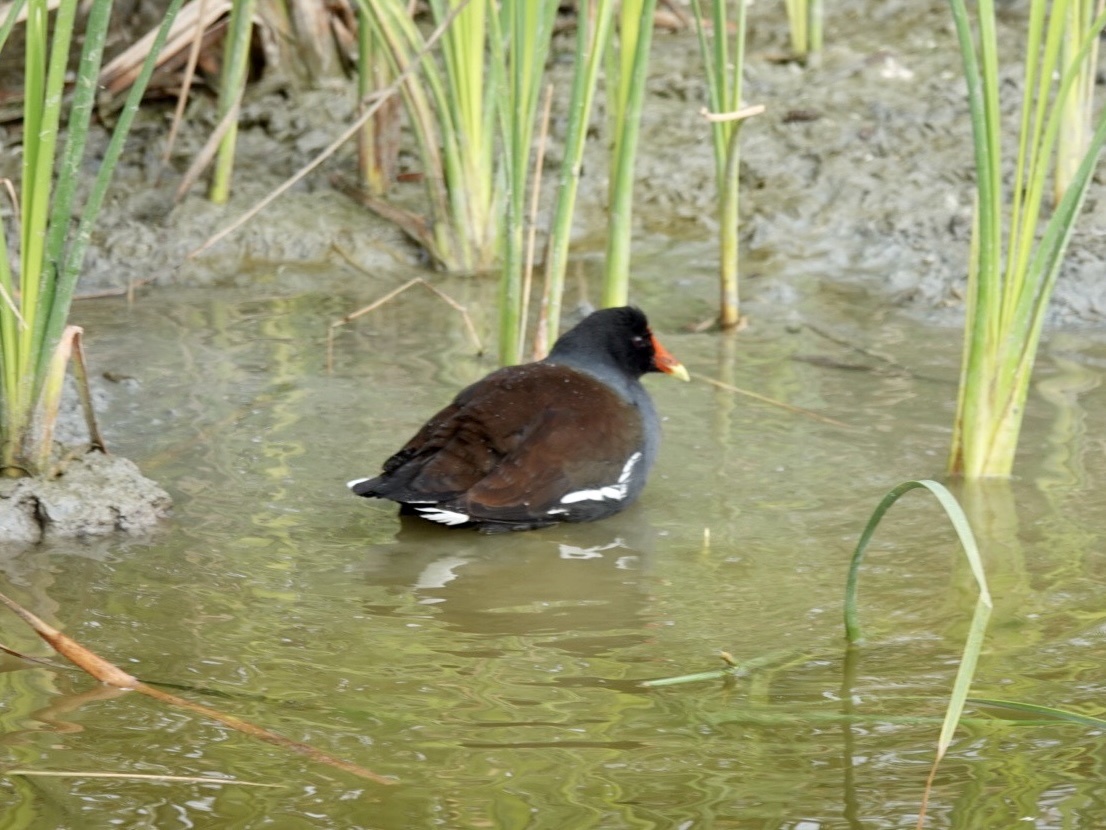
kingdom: Animalia
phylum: Chordata
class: Aves
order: Gruiformes
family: Rallidae
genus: Gallinula
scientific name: Gallinula chloropus
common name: Common moorhen
